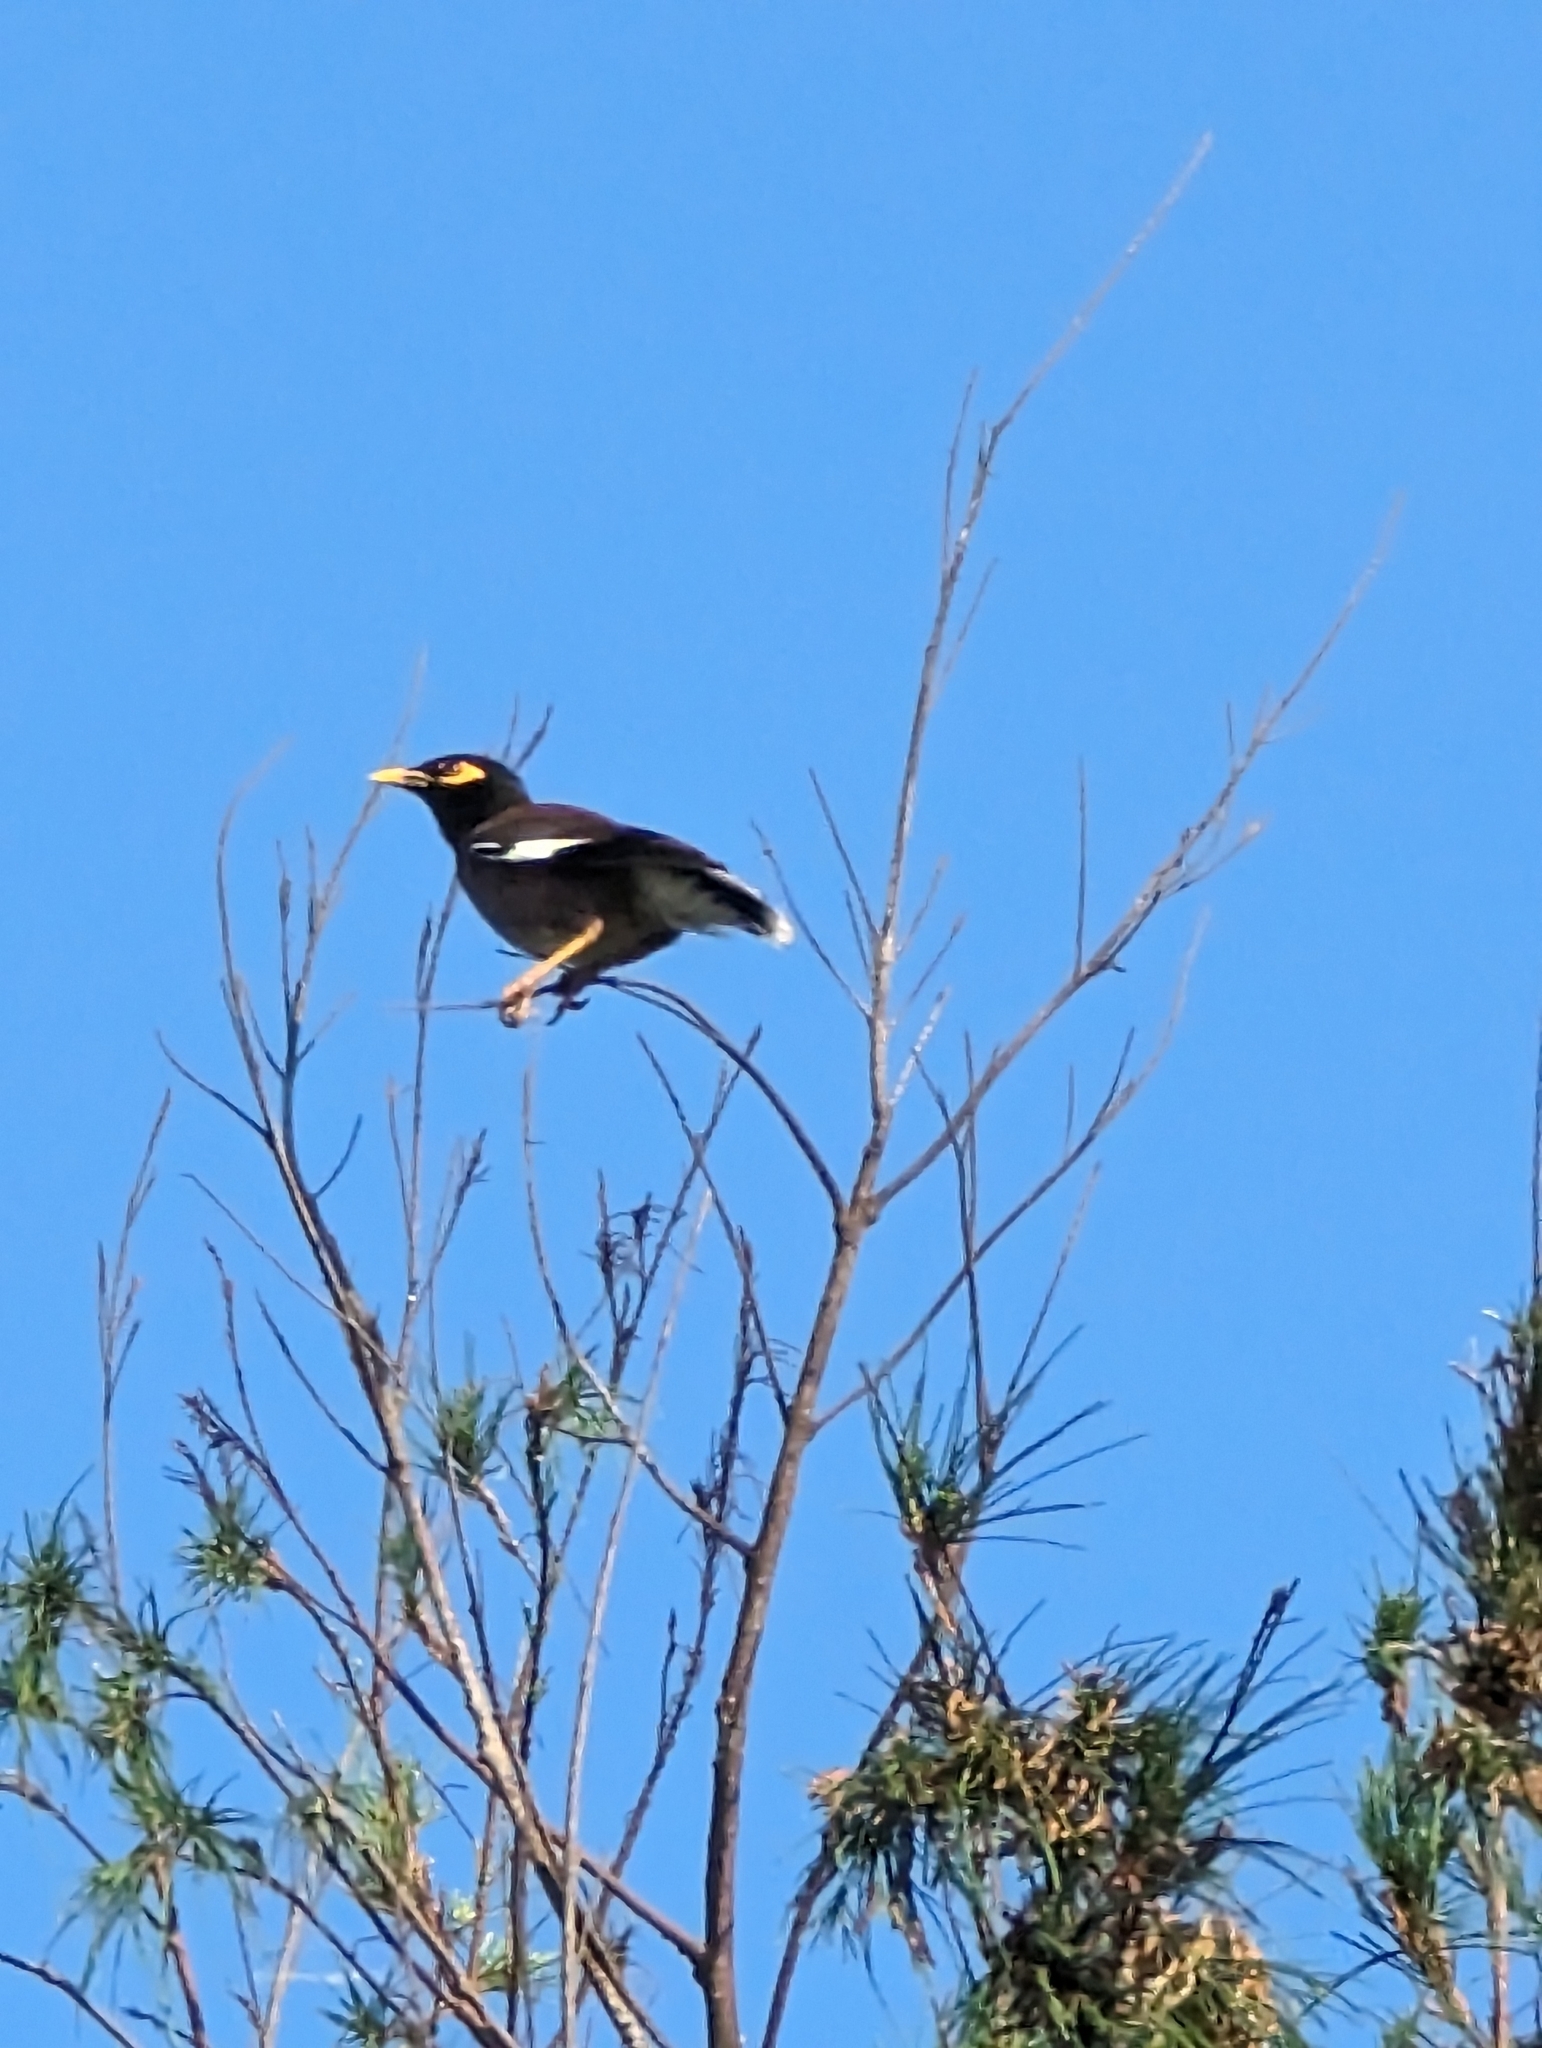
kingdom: Animalia
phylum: Chordata
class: Aves
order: Passeriformes
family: Sturnidae
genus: Acridotheres
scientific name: Acridotheres tristis
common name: Common myna
